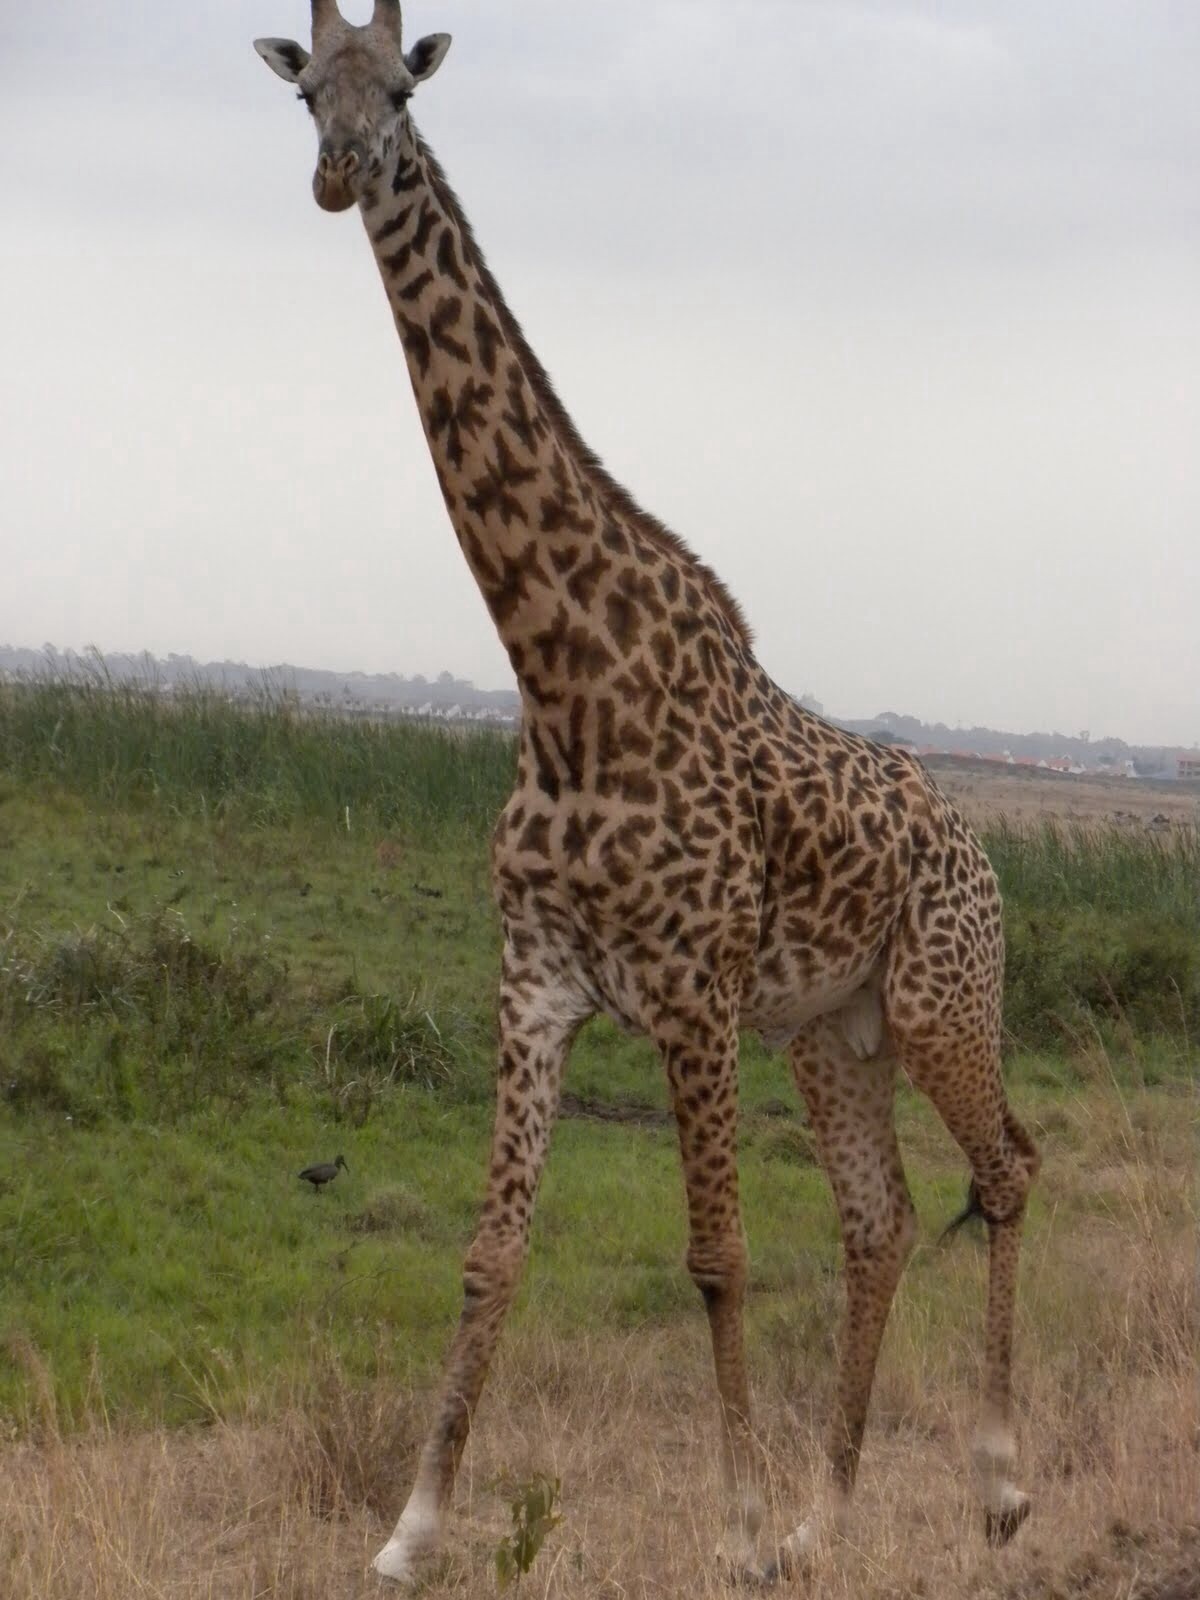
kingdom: Animalia
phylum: Chordata
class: Mammalia
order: Artiodactyla
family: Giraffidae
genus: Giraffa
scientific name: Giraffa tippelskirchi
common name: Masai giraffe
